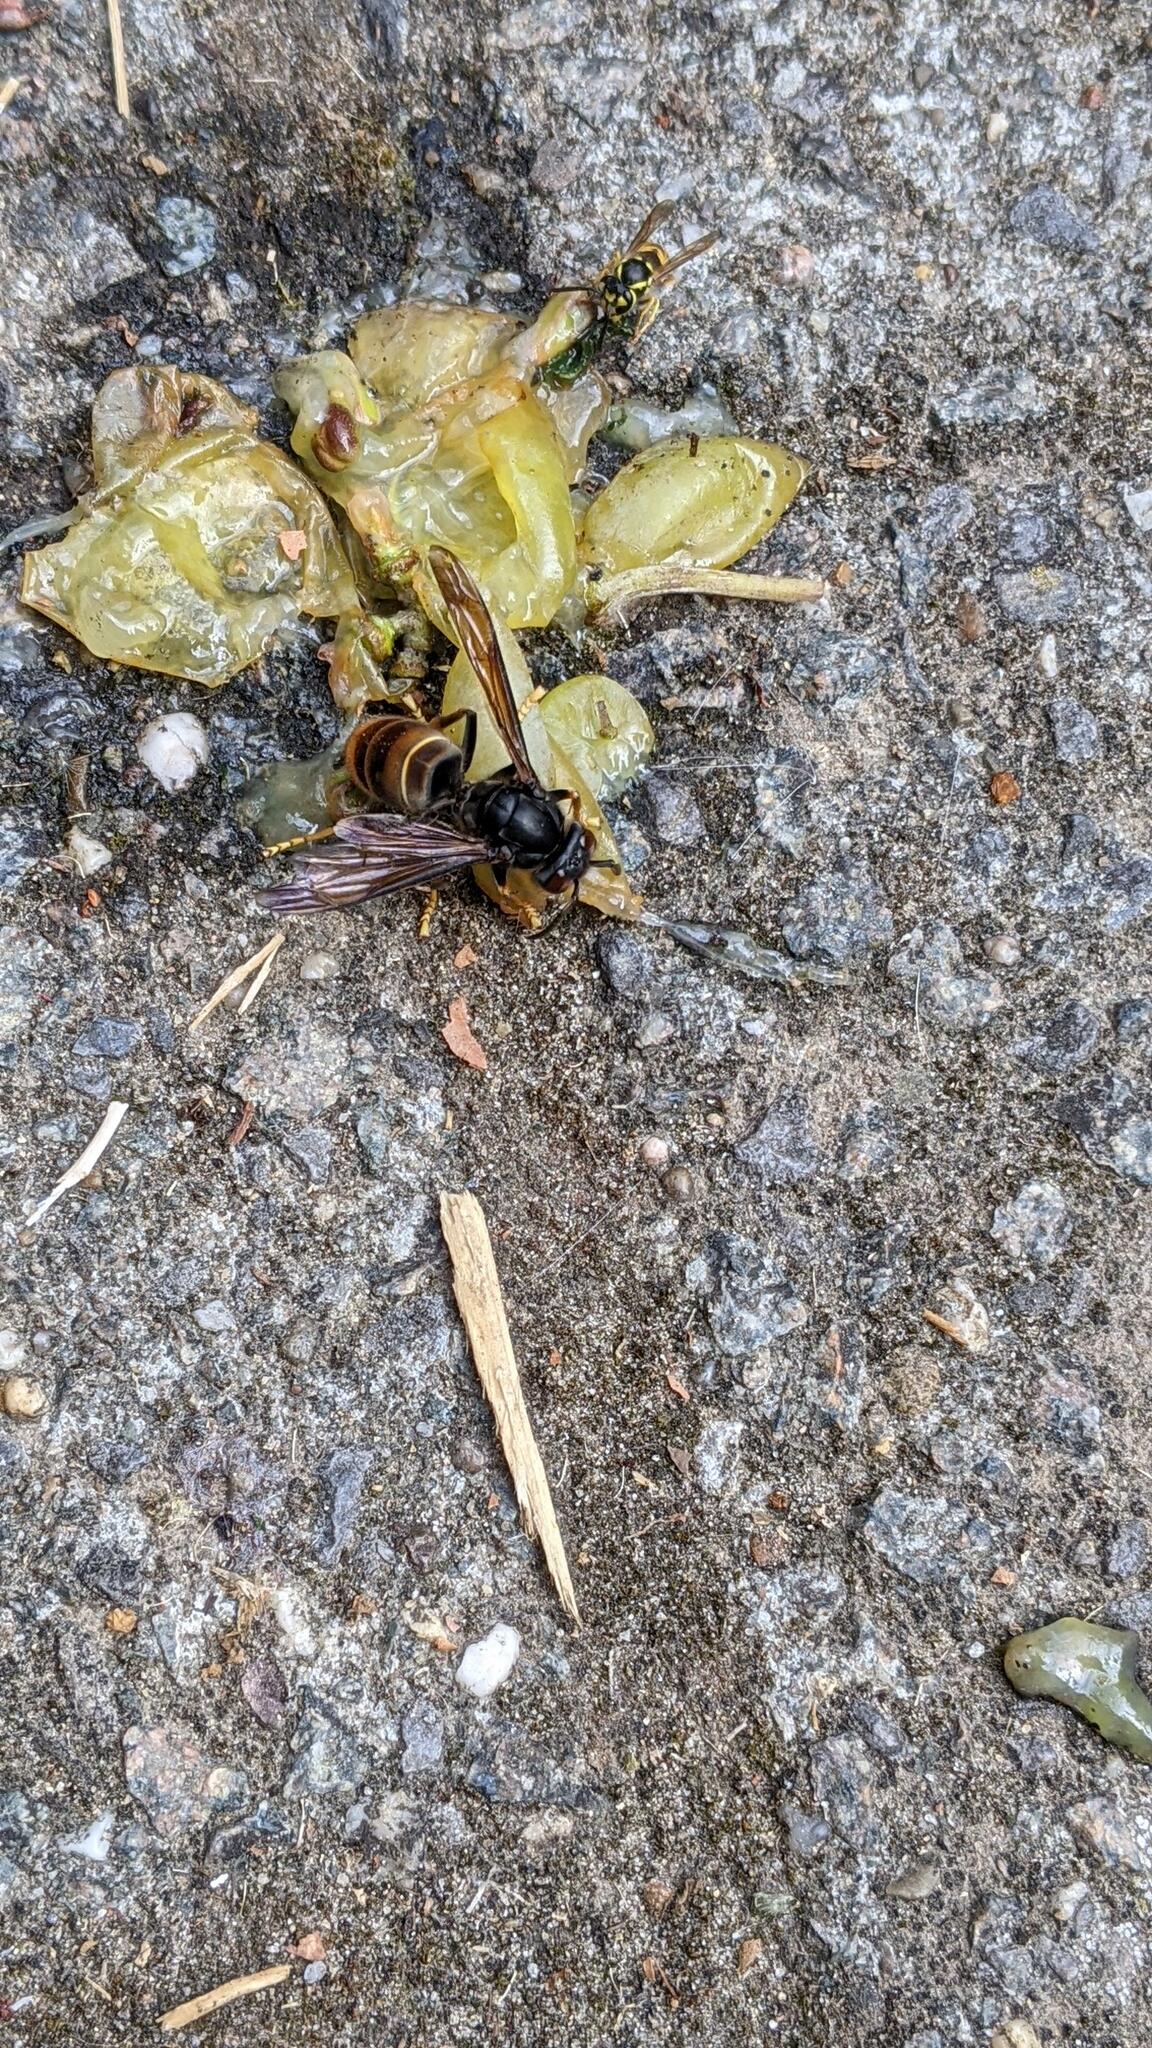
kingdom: Animalia
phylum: Arthropoda
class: Insecta
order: Hymenoptera
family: Vespidae
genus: Vespa
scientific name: Vespa velutina
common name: Asian hornet
